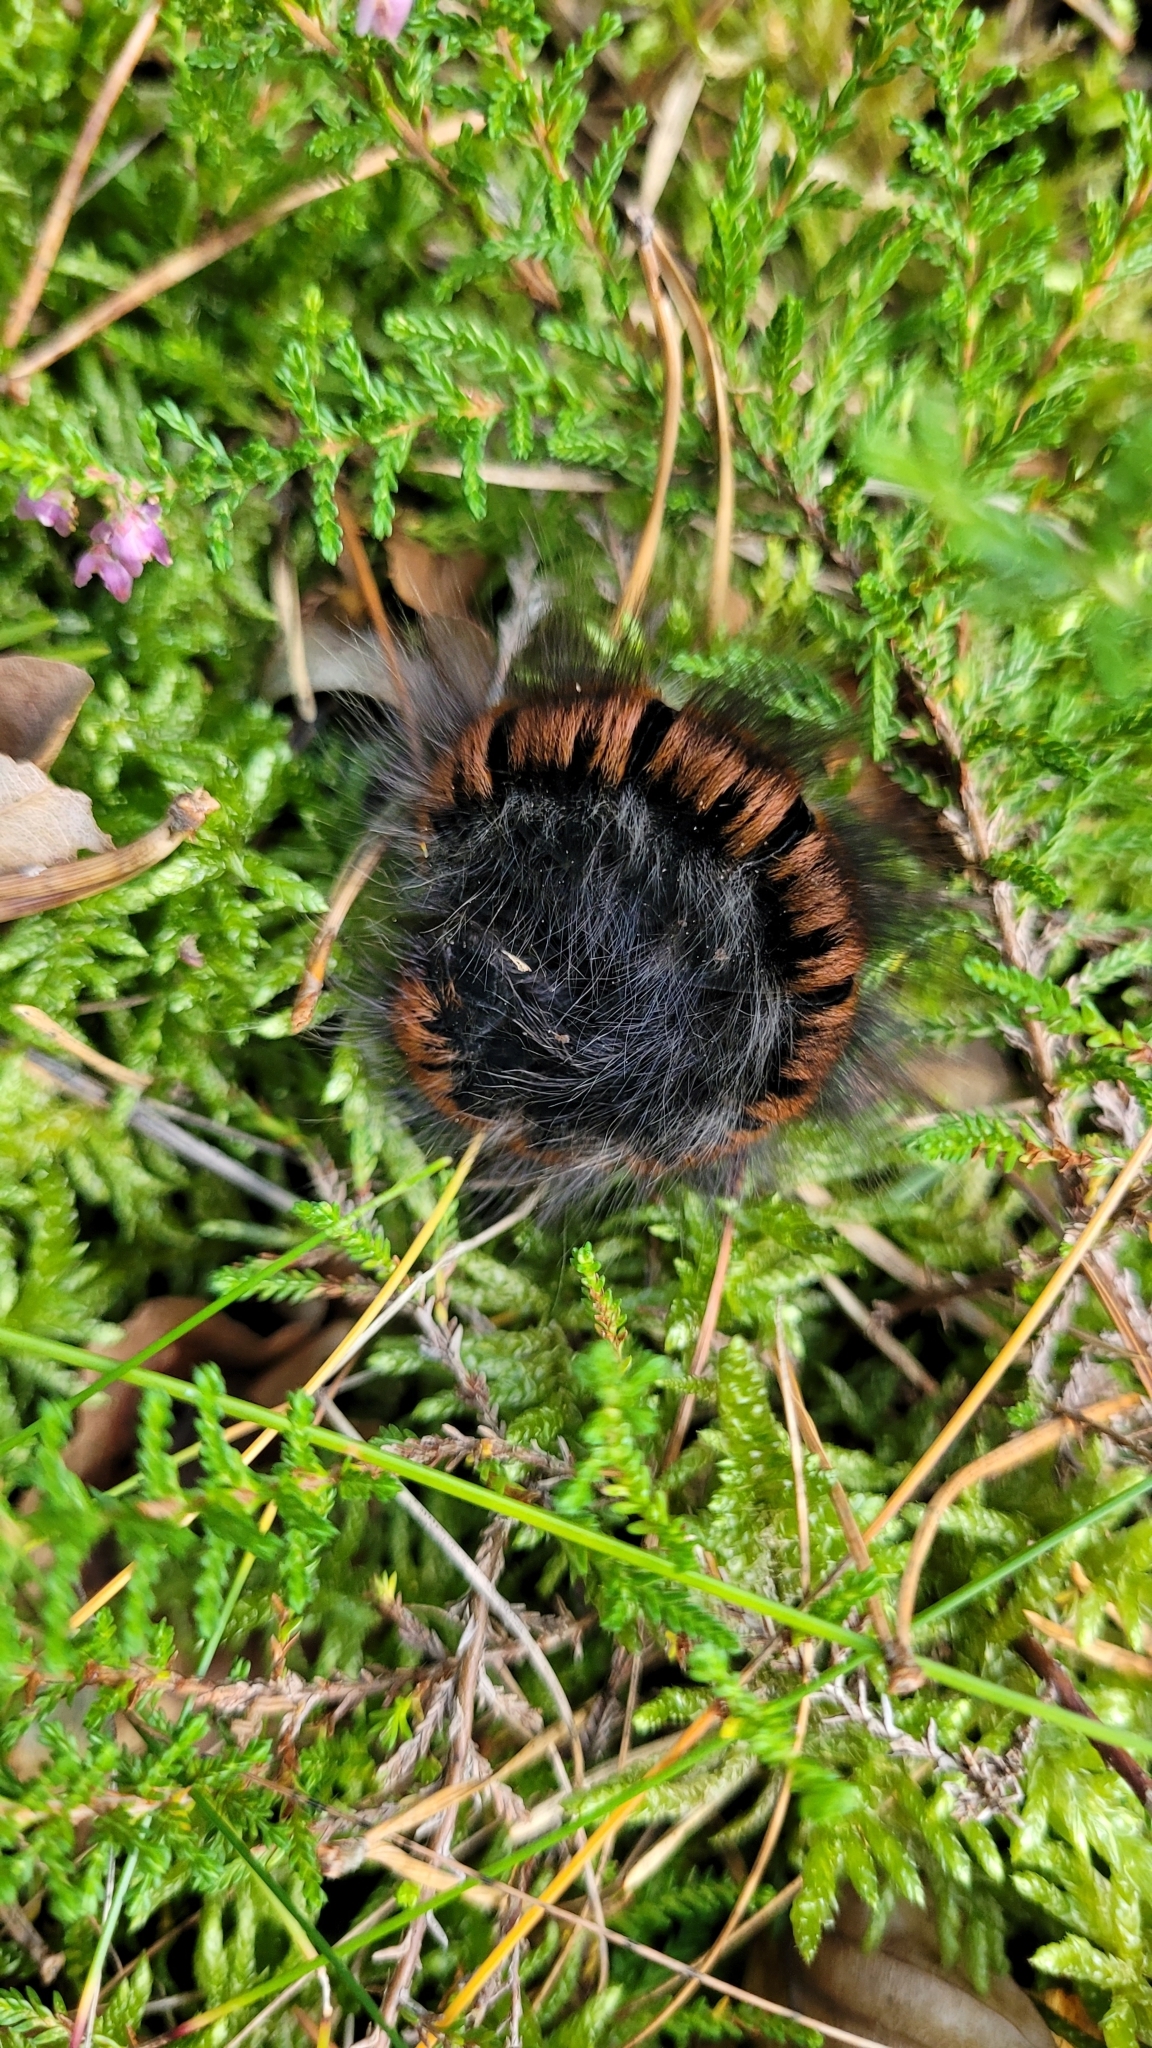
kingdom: Animalia
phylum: Arthropoda
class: Insecta
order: Lepidoptera
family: Lasiocampidae
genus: Macrothylacia
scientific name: Macrothylacia rubi
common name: Fox moth
